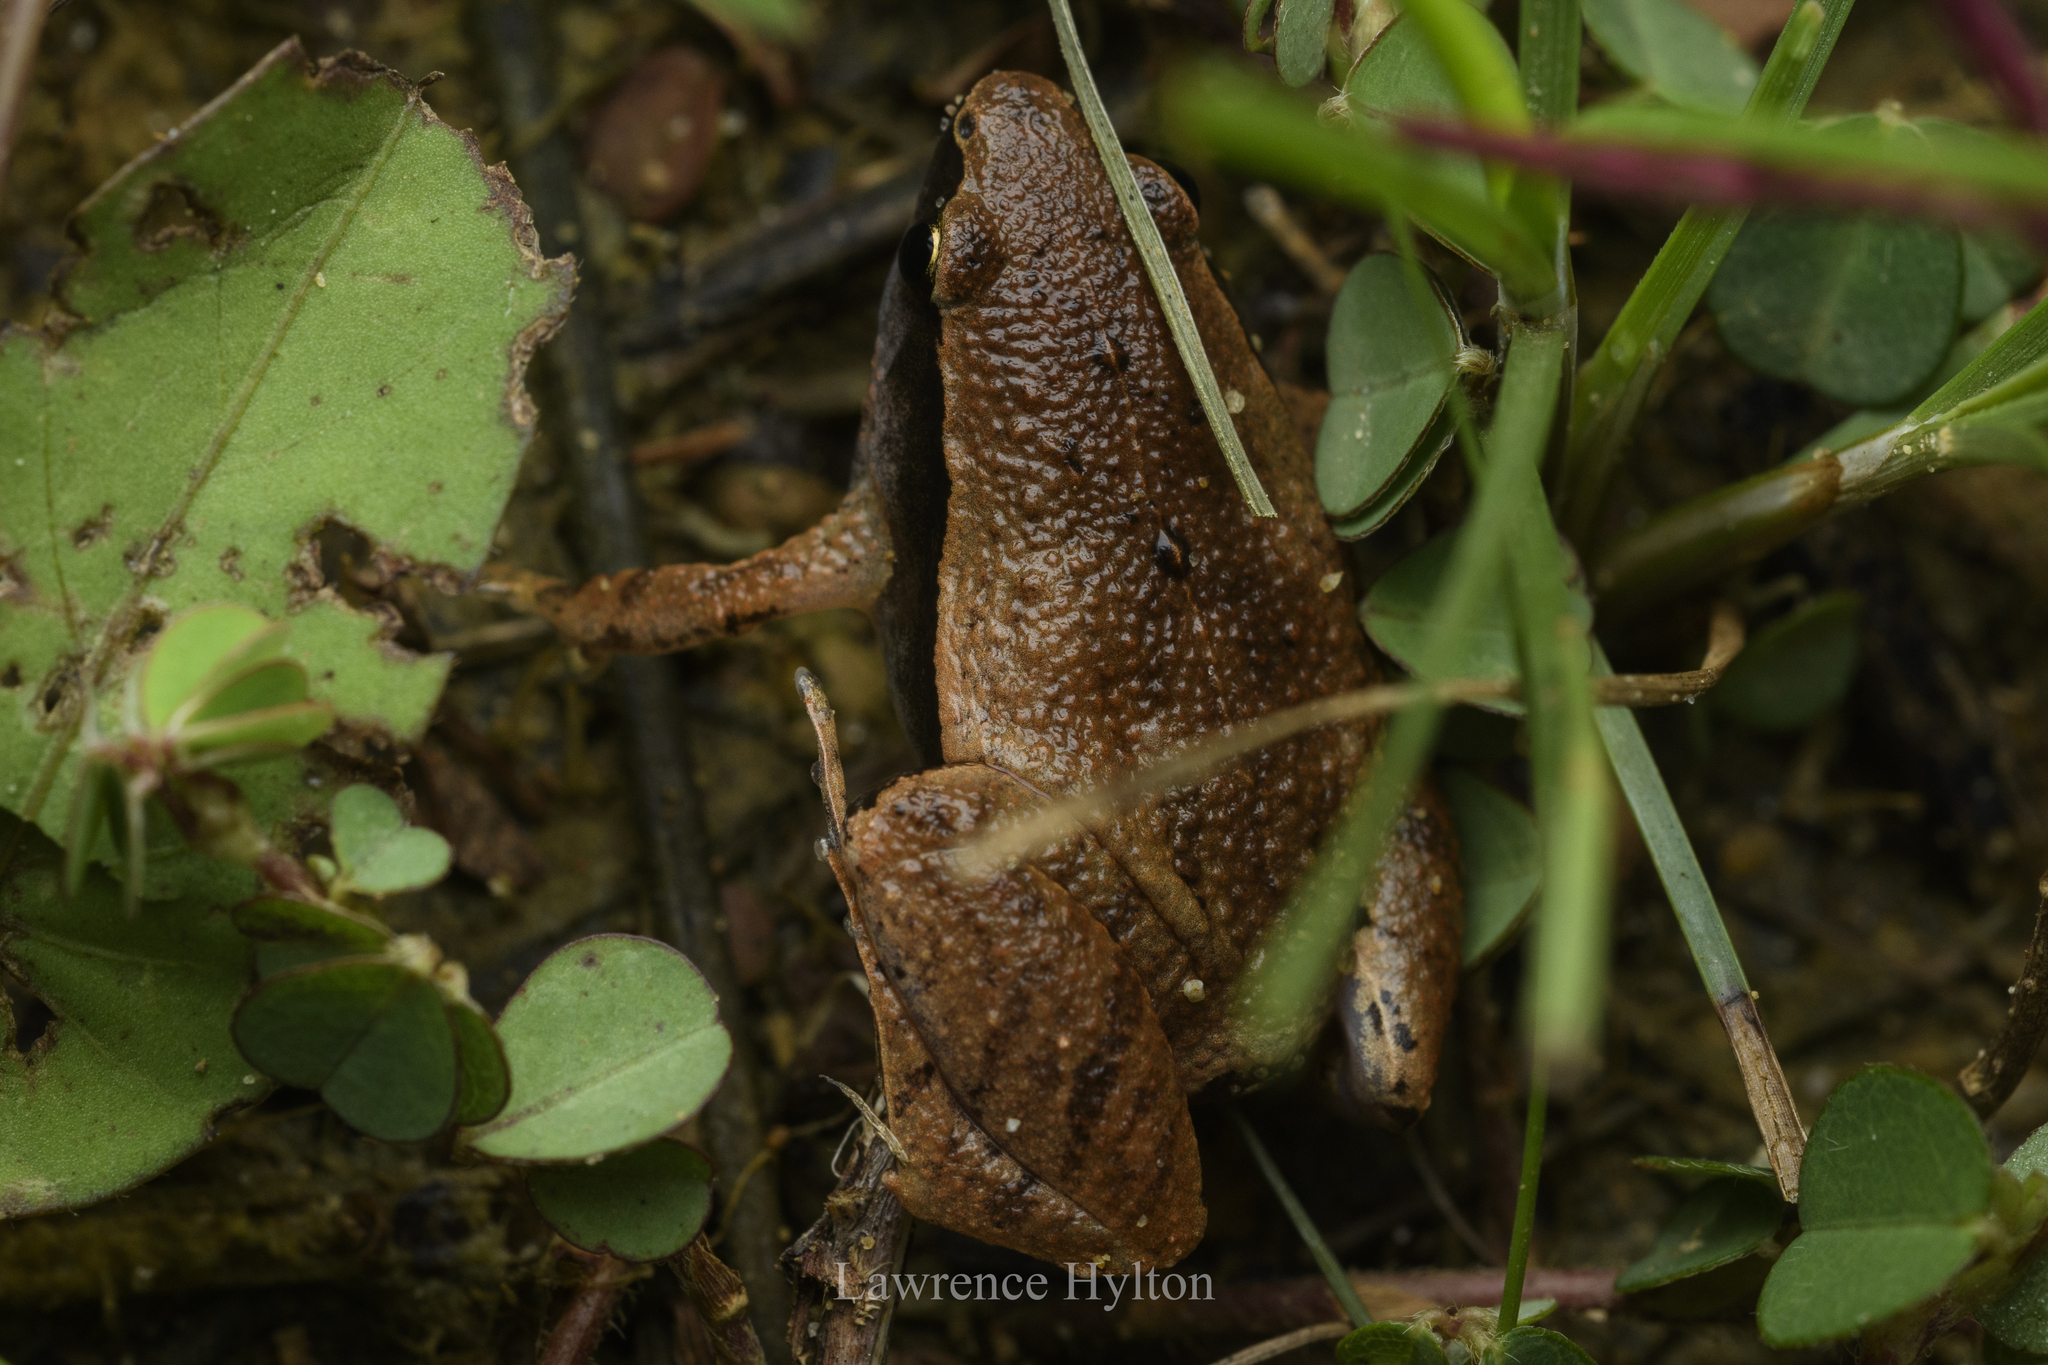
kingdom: Animalia
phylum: Chordata
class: Amphibia
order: Anura
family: Microhylidae
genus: Microhyla
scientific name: Microhyla heymonsi
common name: Taiwan rice frog,dark sided chorus frog
